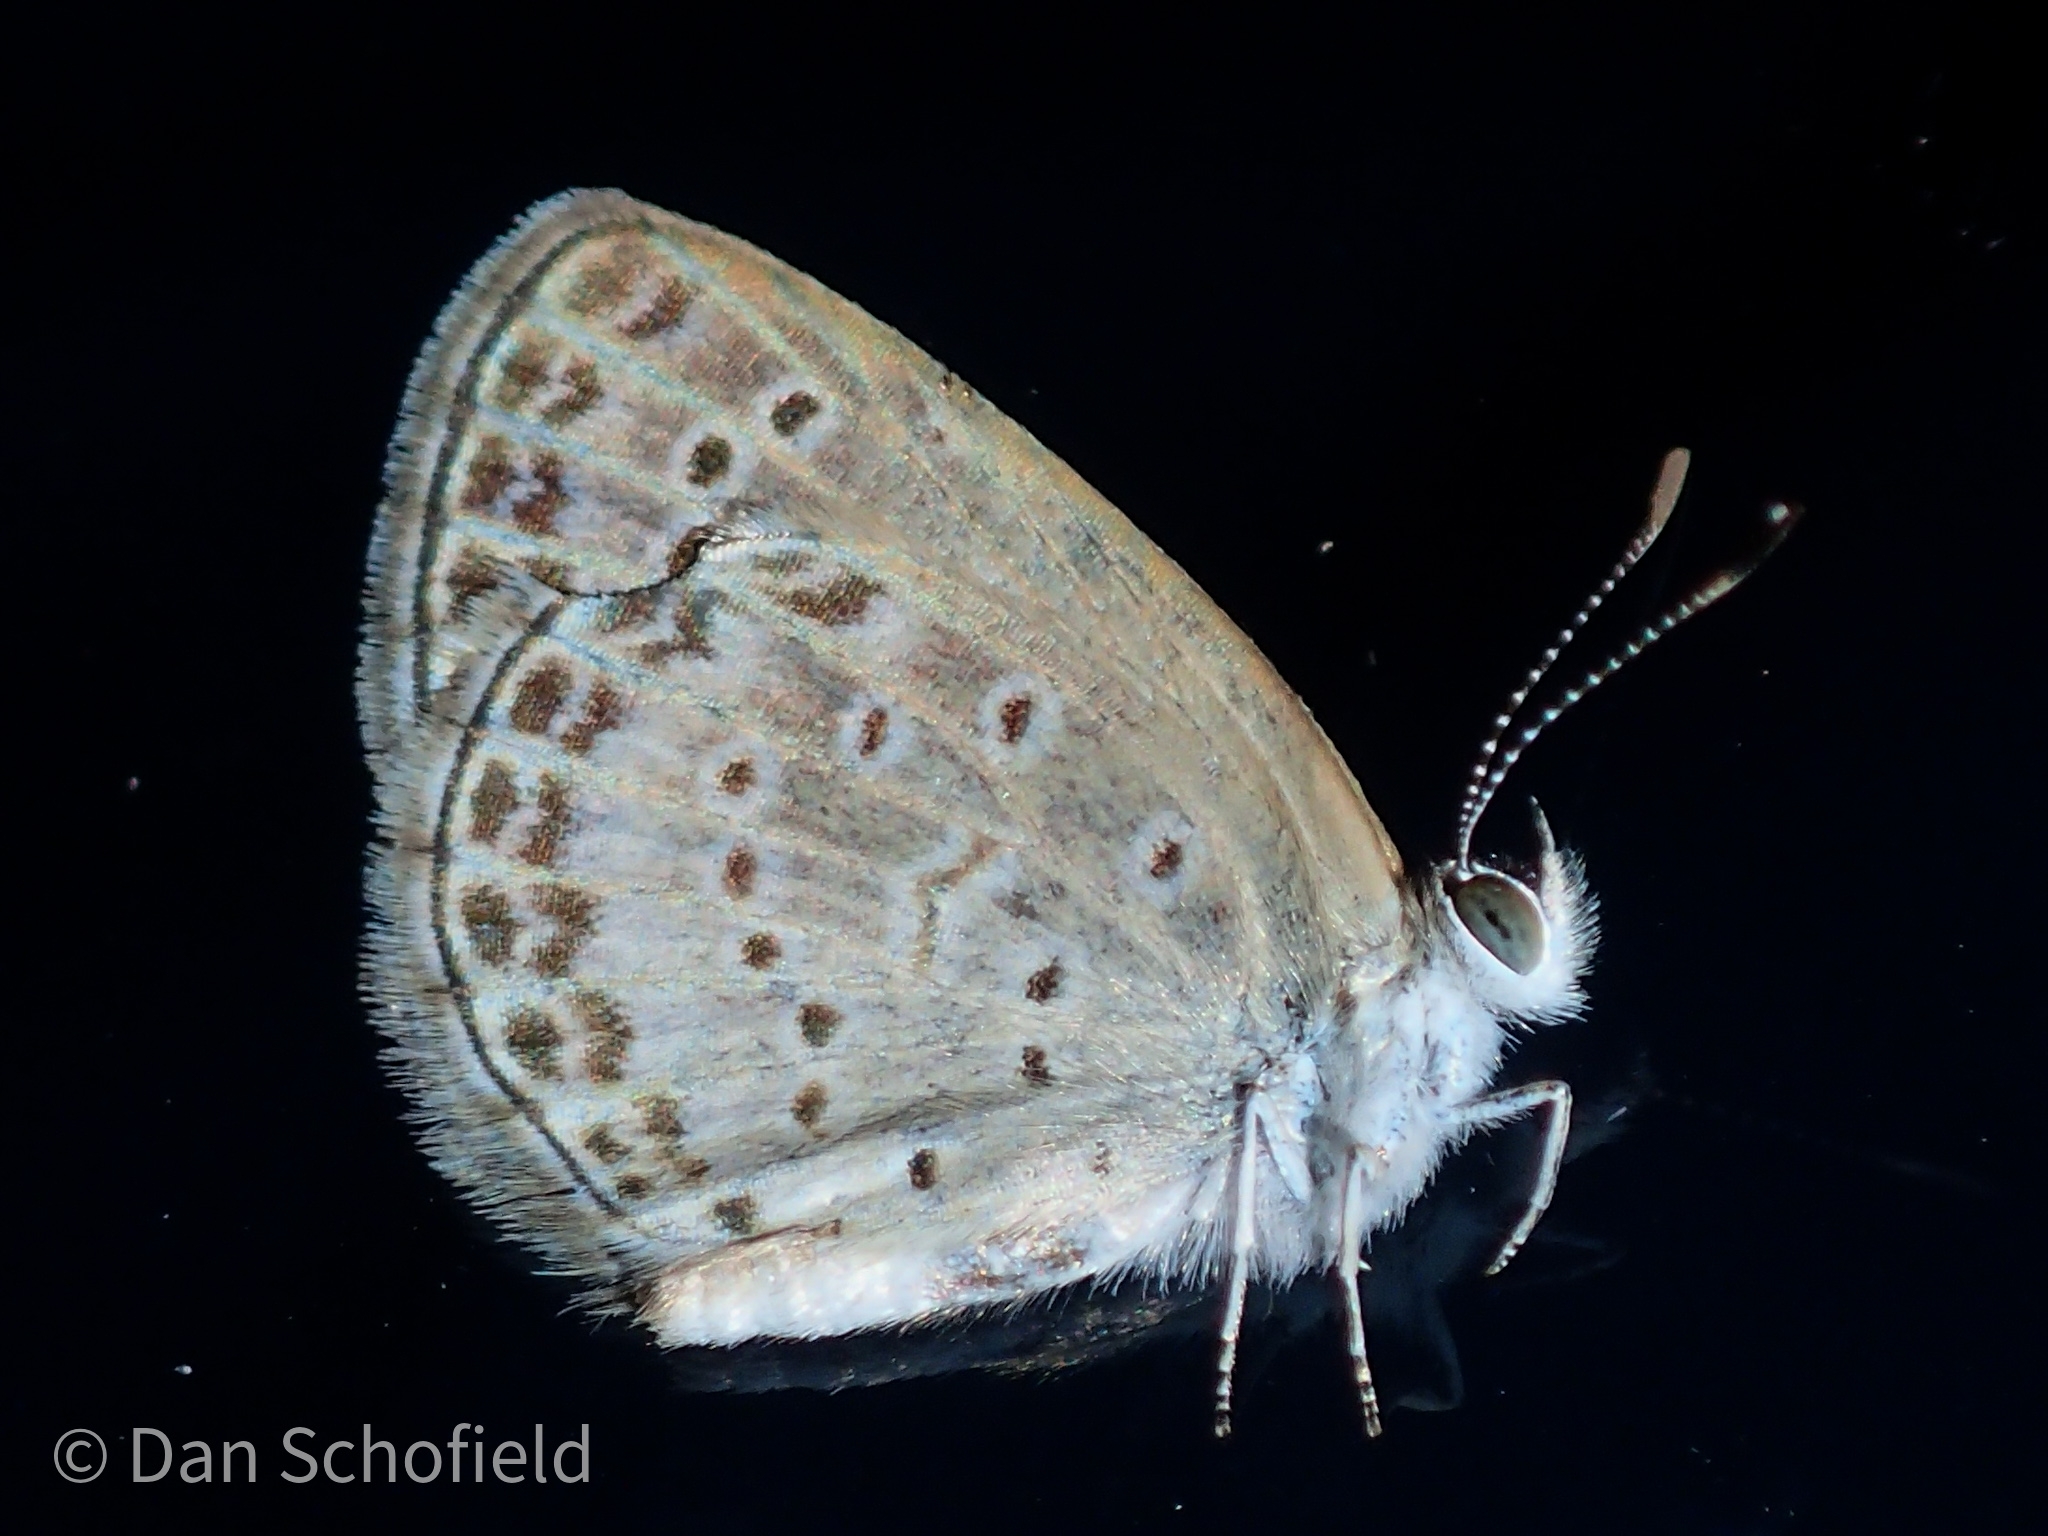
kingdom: Animalia
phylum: Arthropoda
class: Insecta
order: Lepidoptera
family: Lycaenidae
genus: Pseudozizeeria
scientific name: Pseudozizeeria maha
